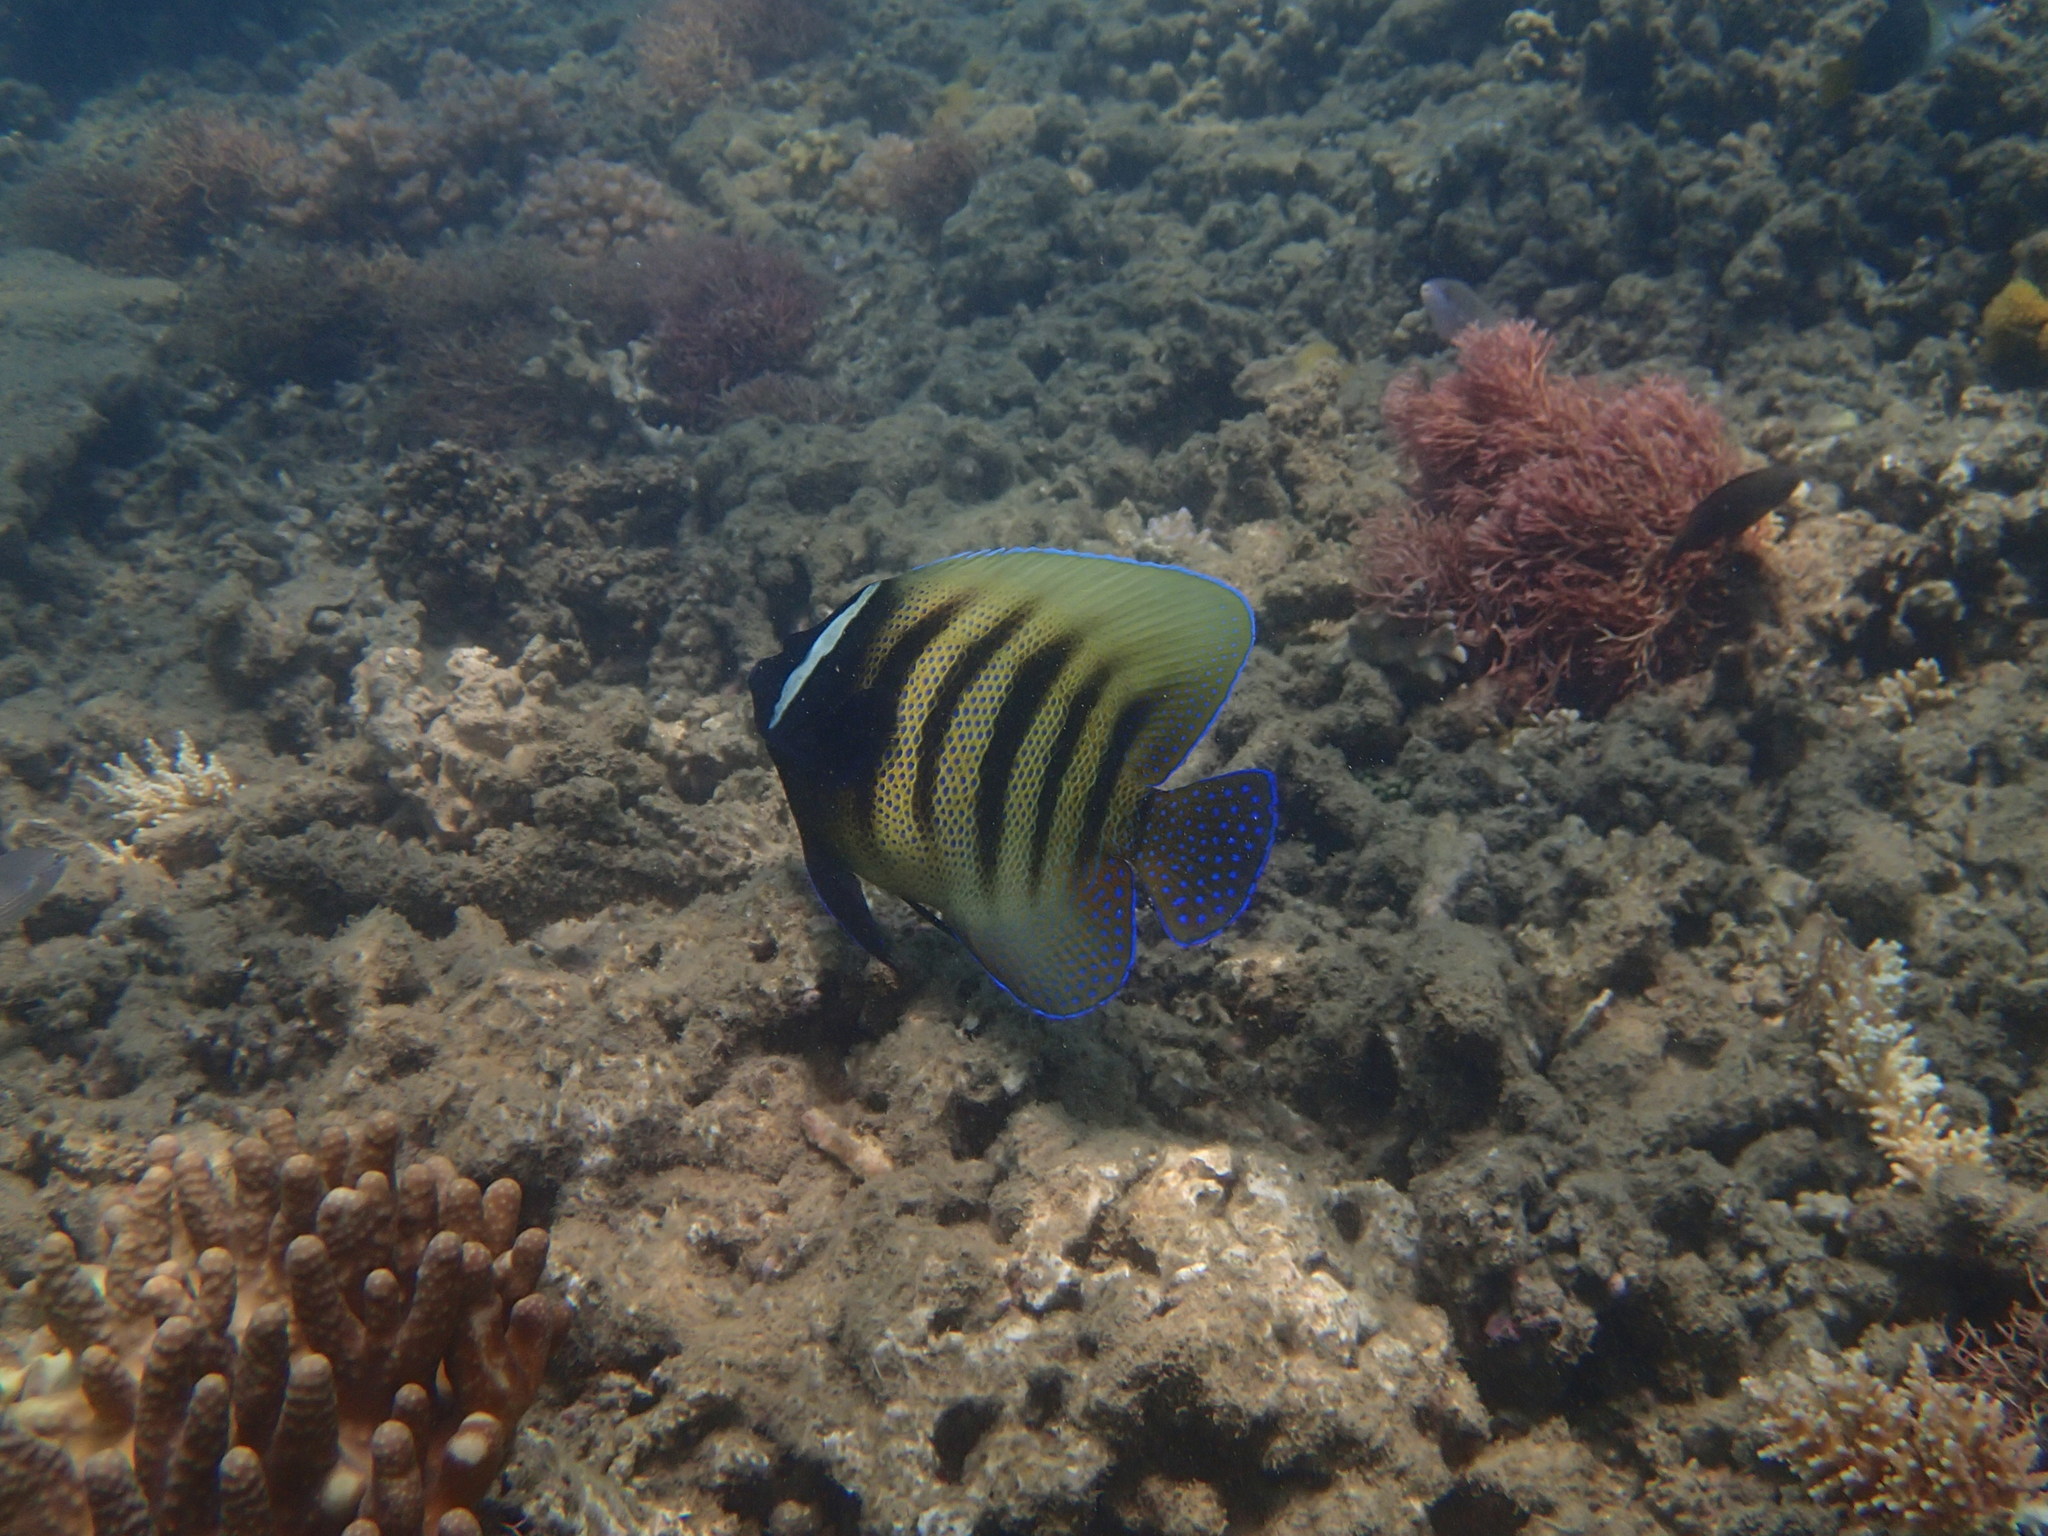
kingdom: Animalia
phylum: Chordata
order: Perciformes
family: Pomacanthidae
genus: Pomacanthus
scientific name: Pomacanthus sexstriatus
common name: Six-banded angelfish
